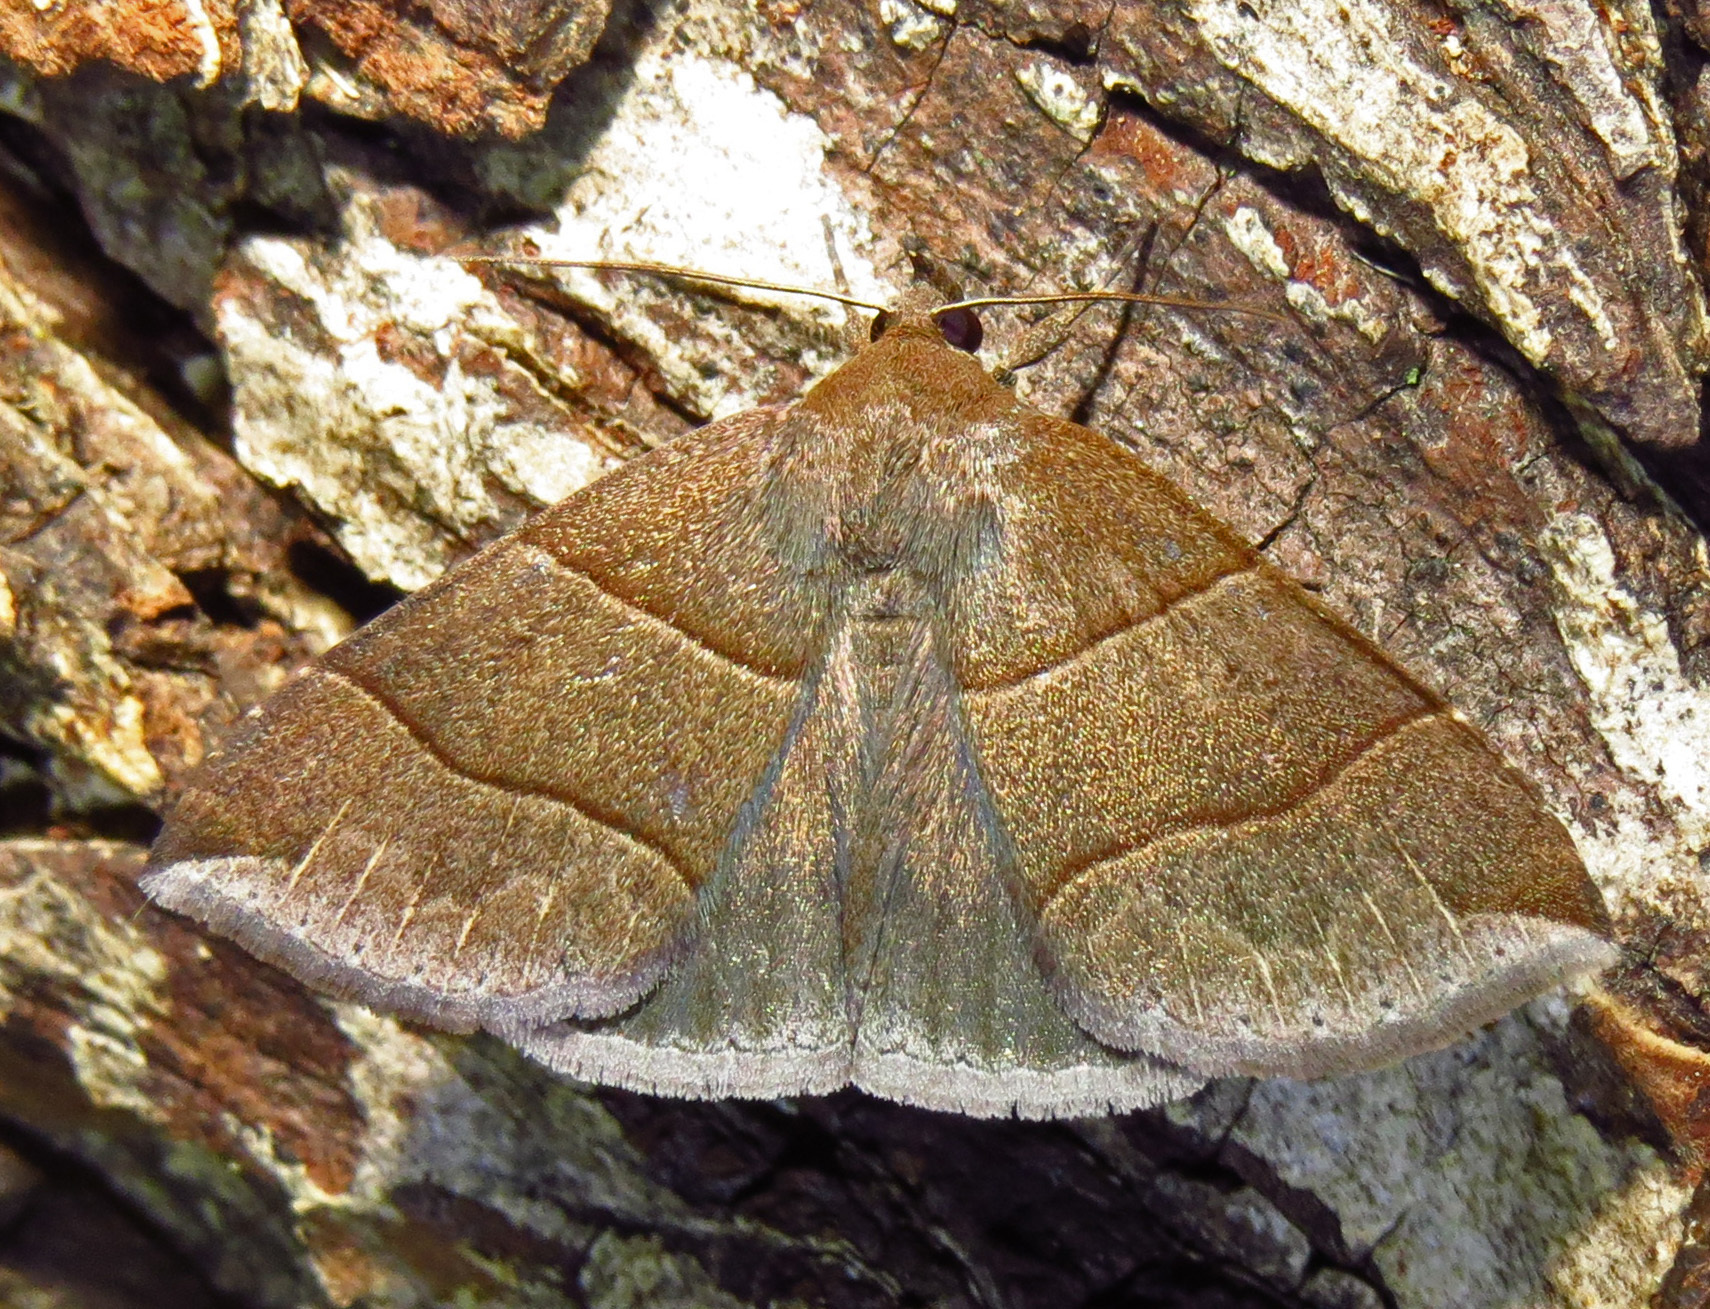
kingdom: Animalia
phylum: Arthropoda
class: Insecta
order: Lepidoptera
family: Erebidae
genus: Parallelia
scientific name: Parallelia bistriaris
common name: Maple looper moth
